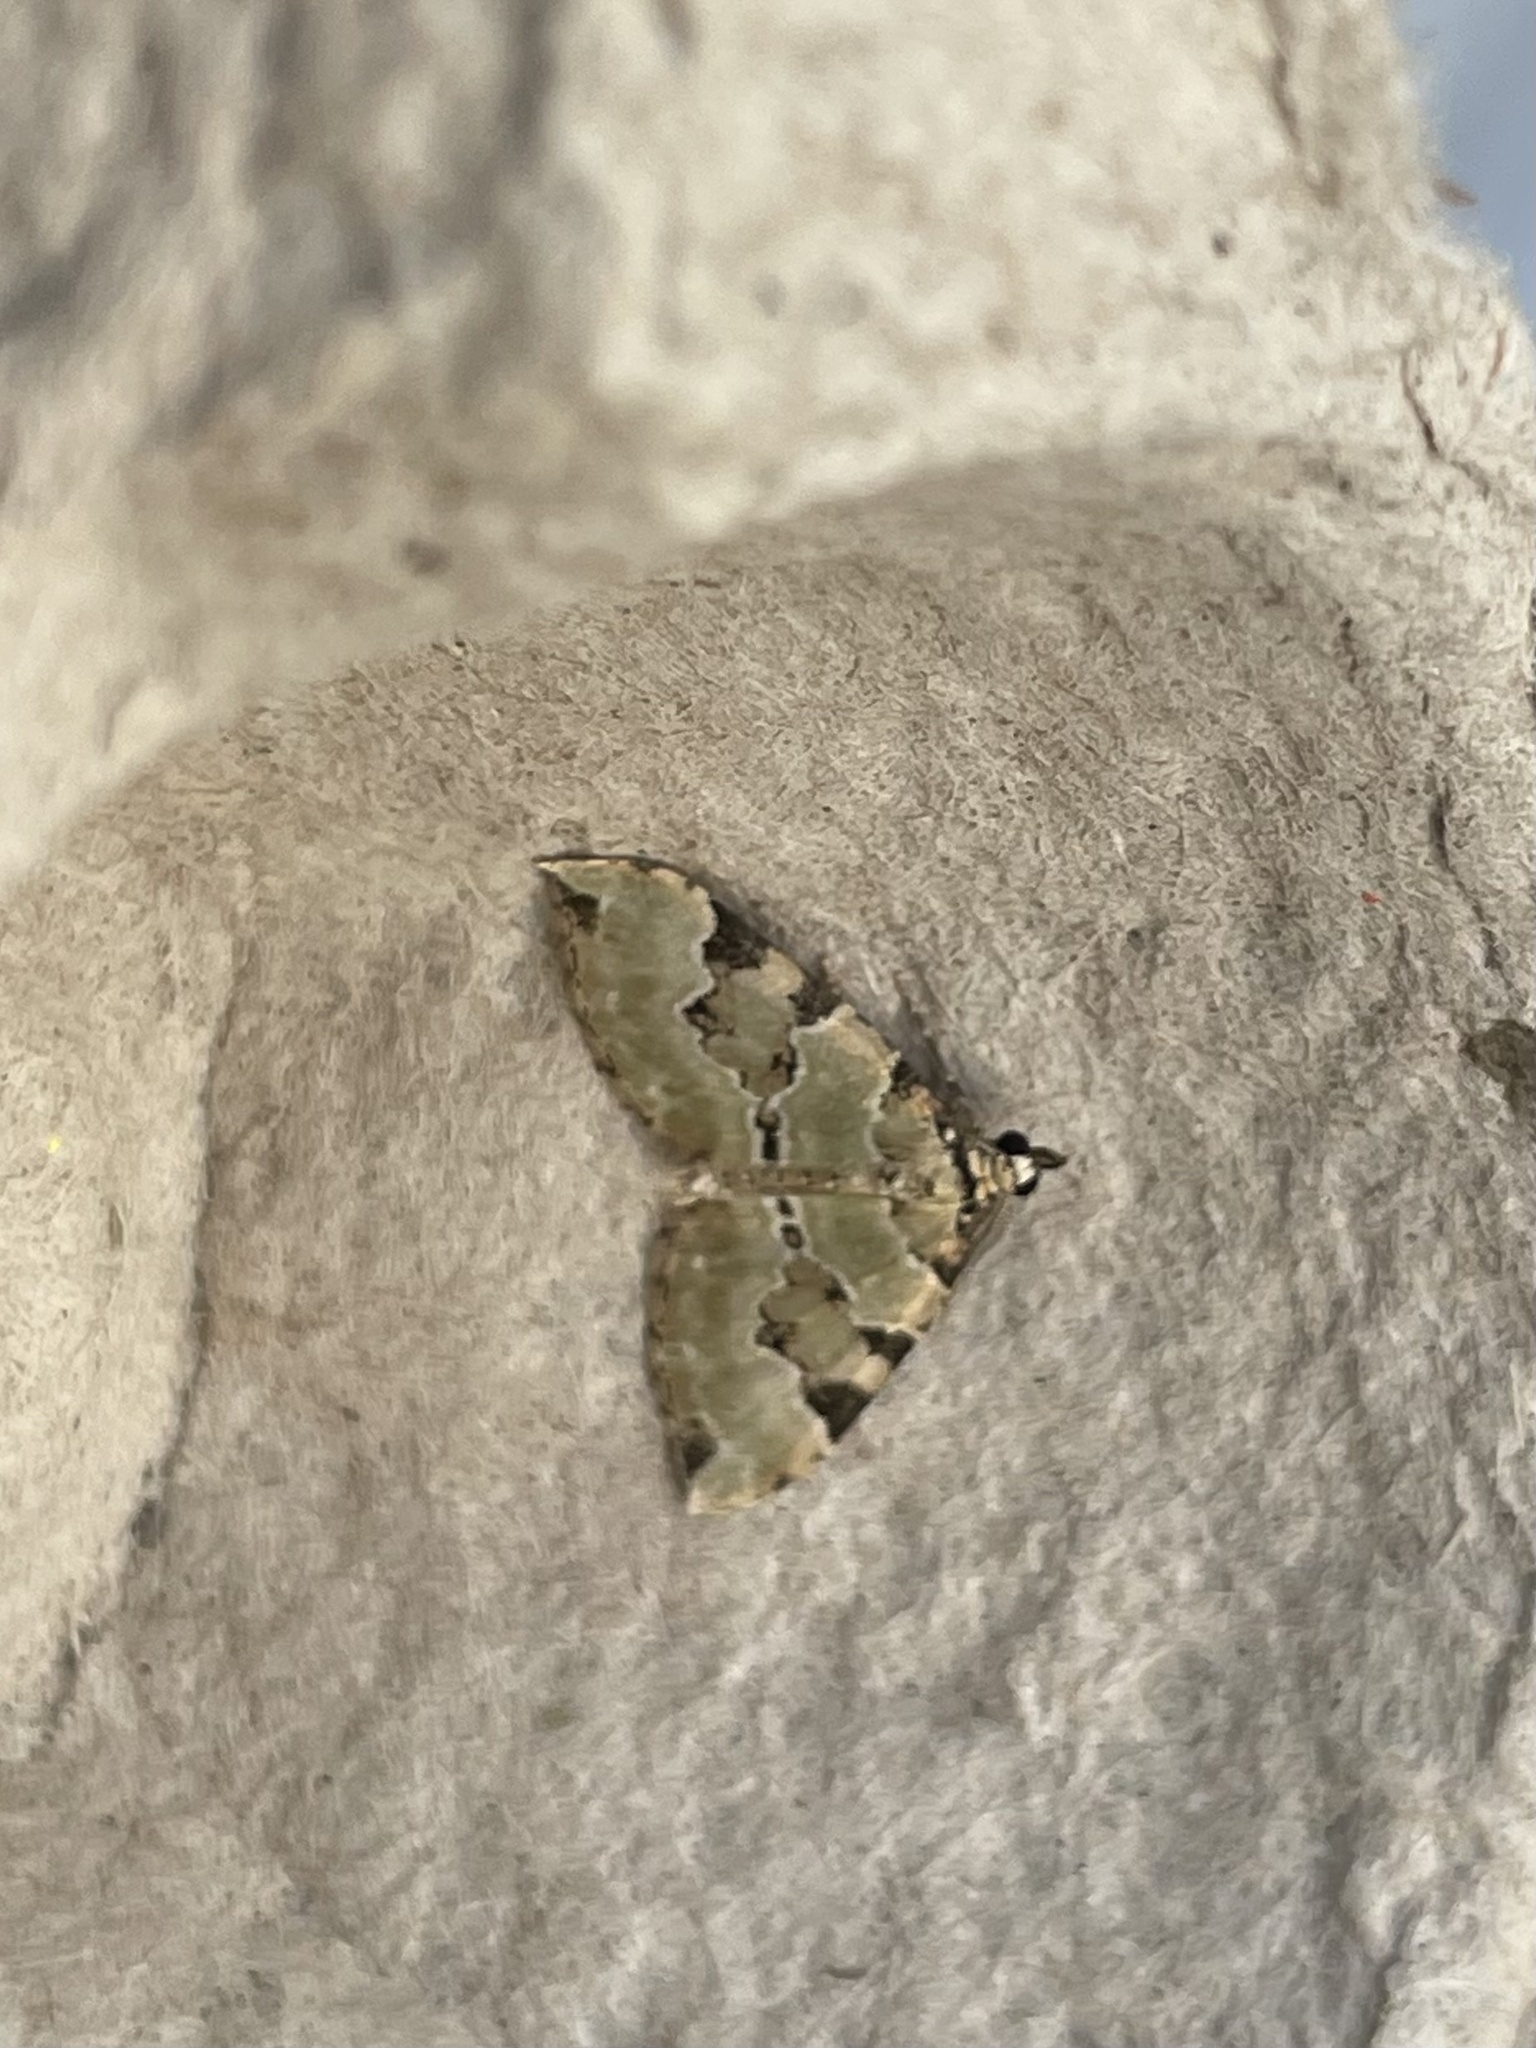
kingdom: Animalia
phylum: Arthropoda
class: Insecta
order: Lepidoptera
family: Geometridae
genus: Colostygia
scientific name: Colostygia pectinataria
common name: Green carpet
